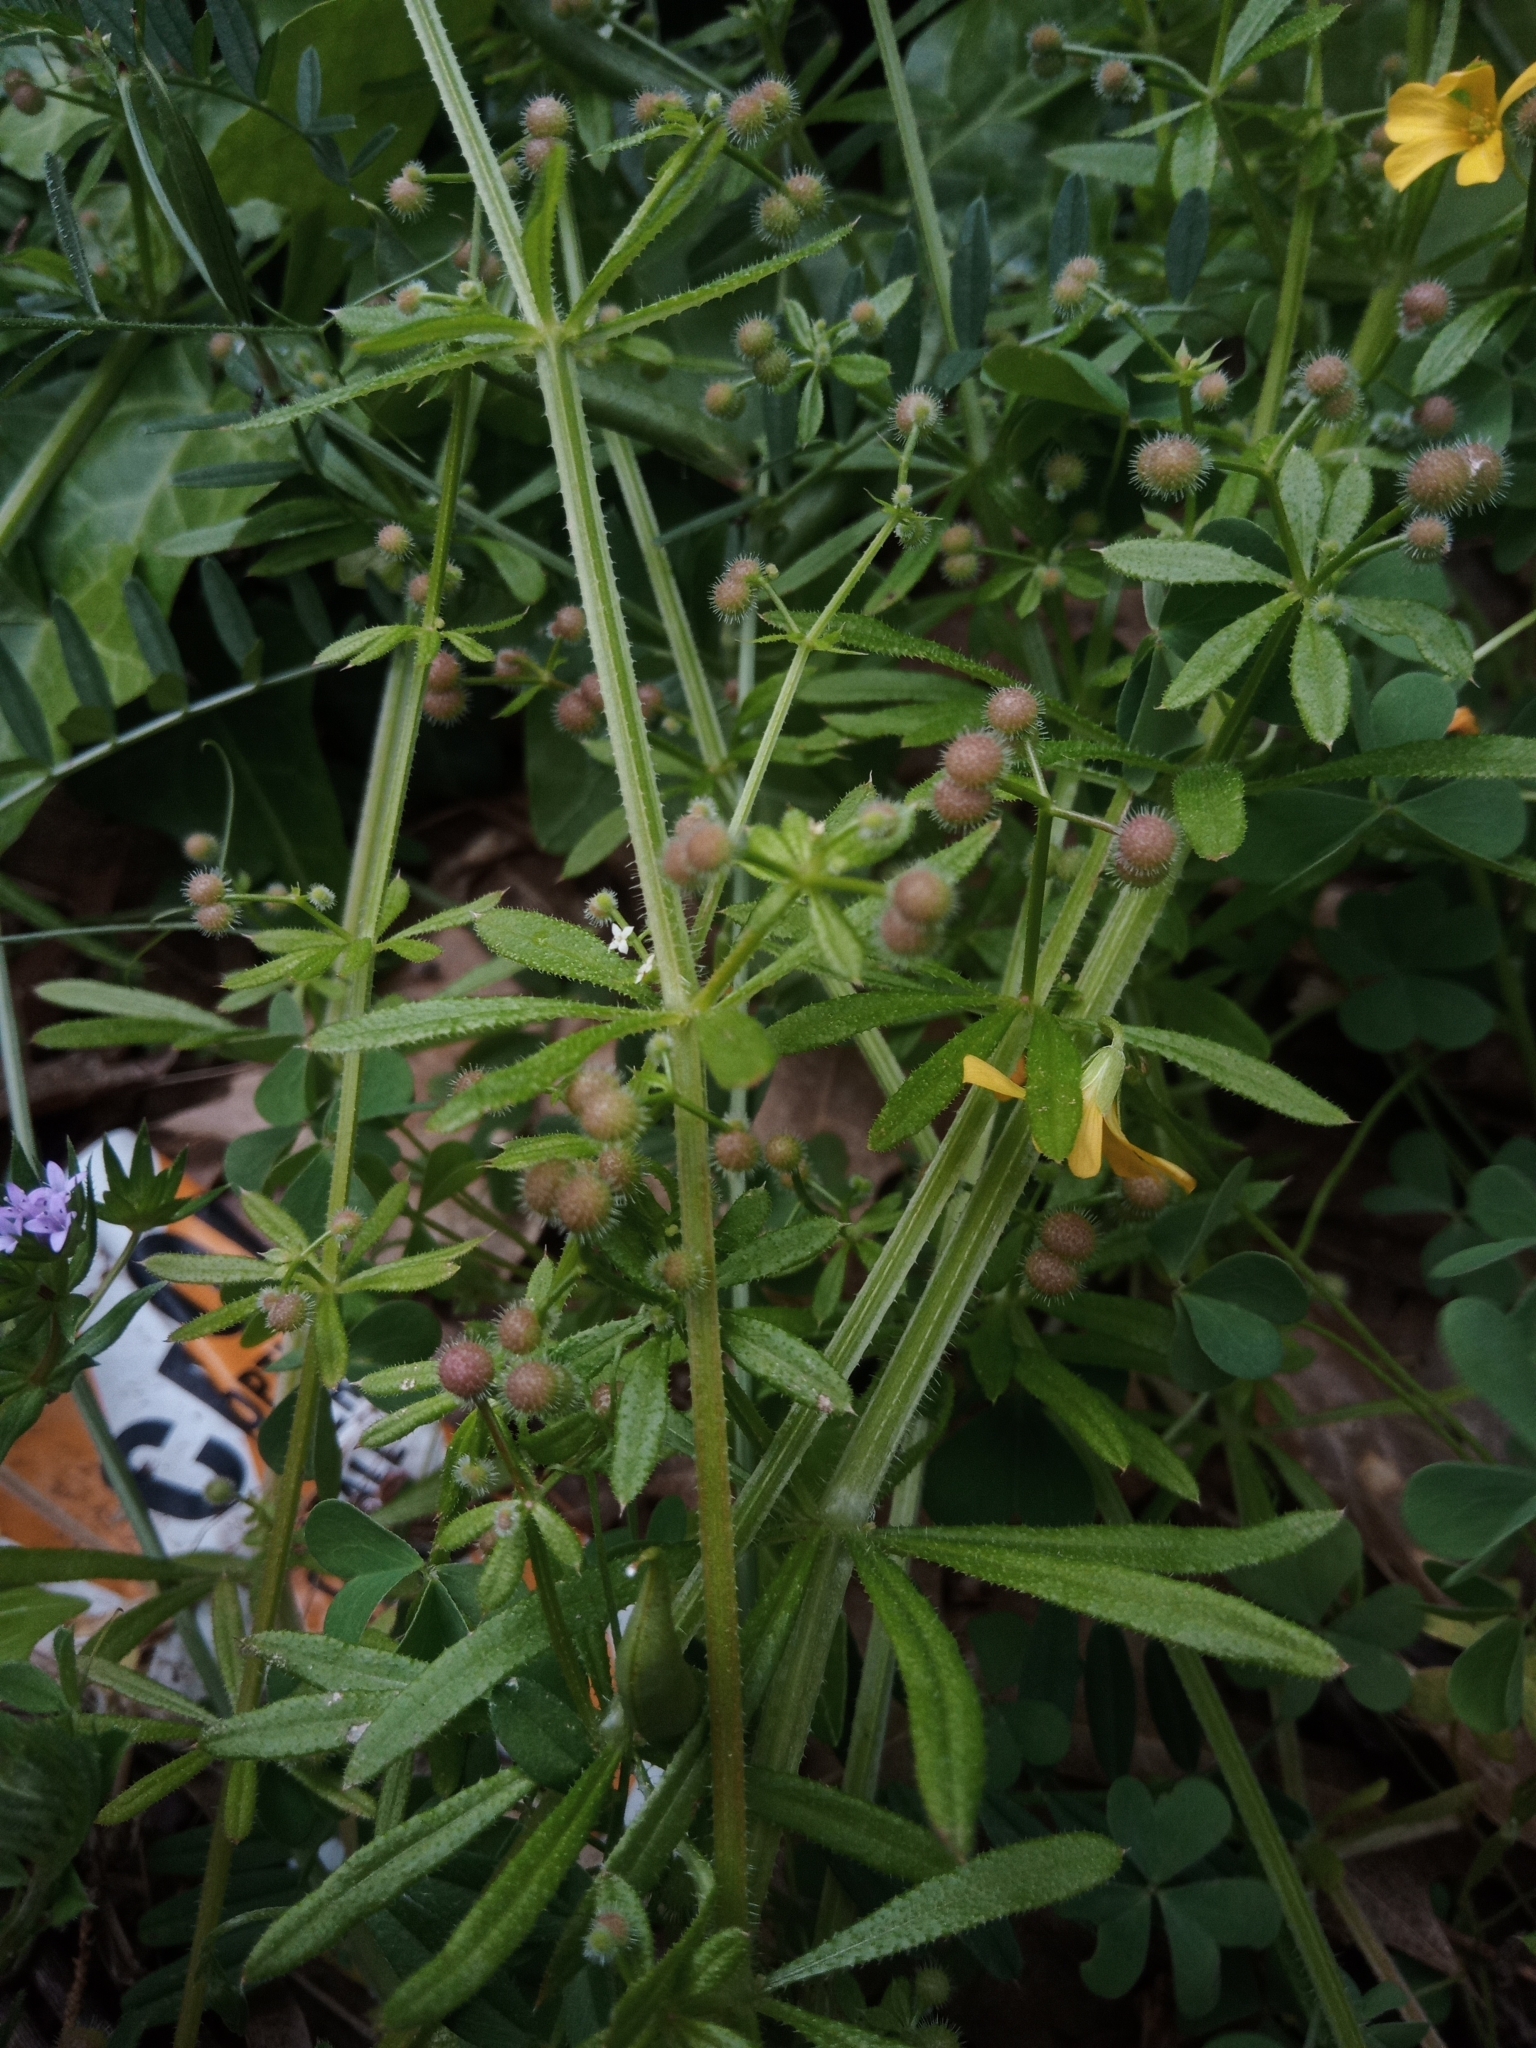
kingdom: Plantae
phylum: Tracheophyta
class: Magnoliopsida
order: Gentianales
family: Rubiaceae
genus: Galium
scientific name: Galium aparine
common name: Cleavers
